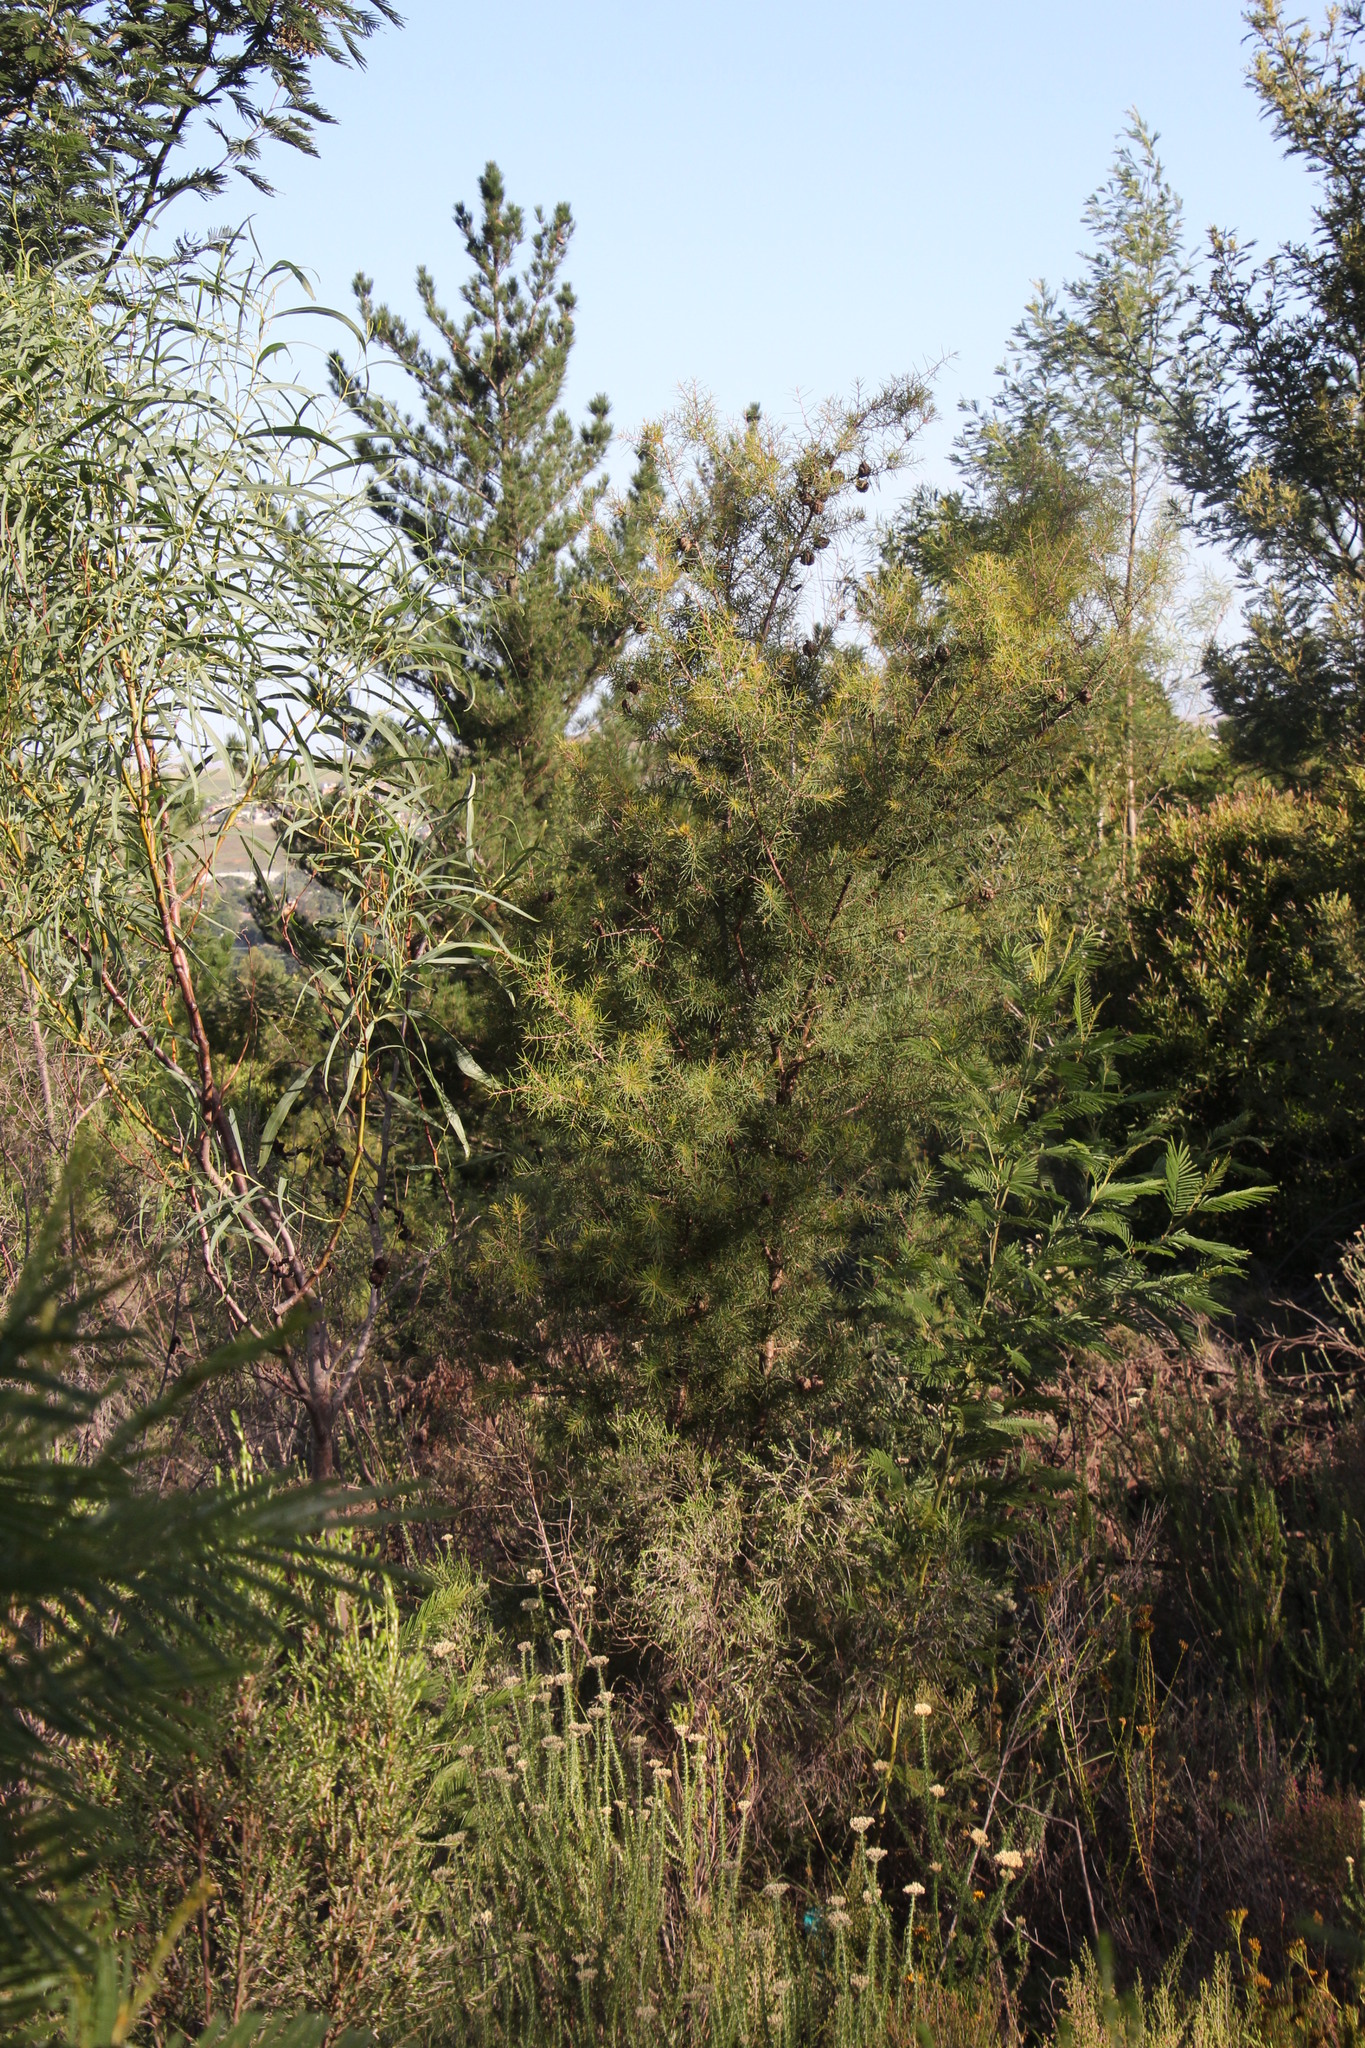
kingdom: Plantae
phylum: Tracheophyta
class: Magnoliopsida
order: Proteales
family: Proteaceae
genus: Hakea
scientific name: Hakea sericea
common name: Needle bush
